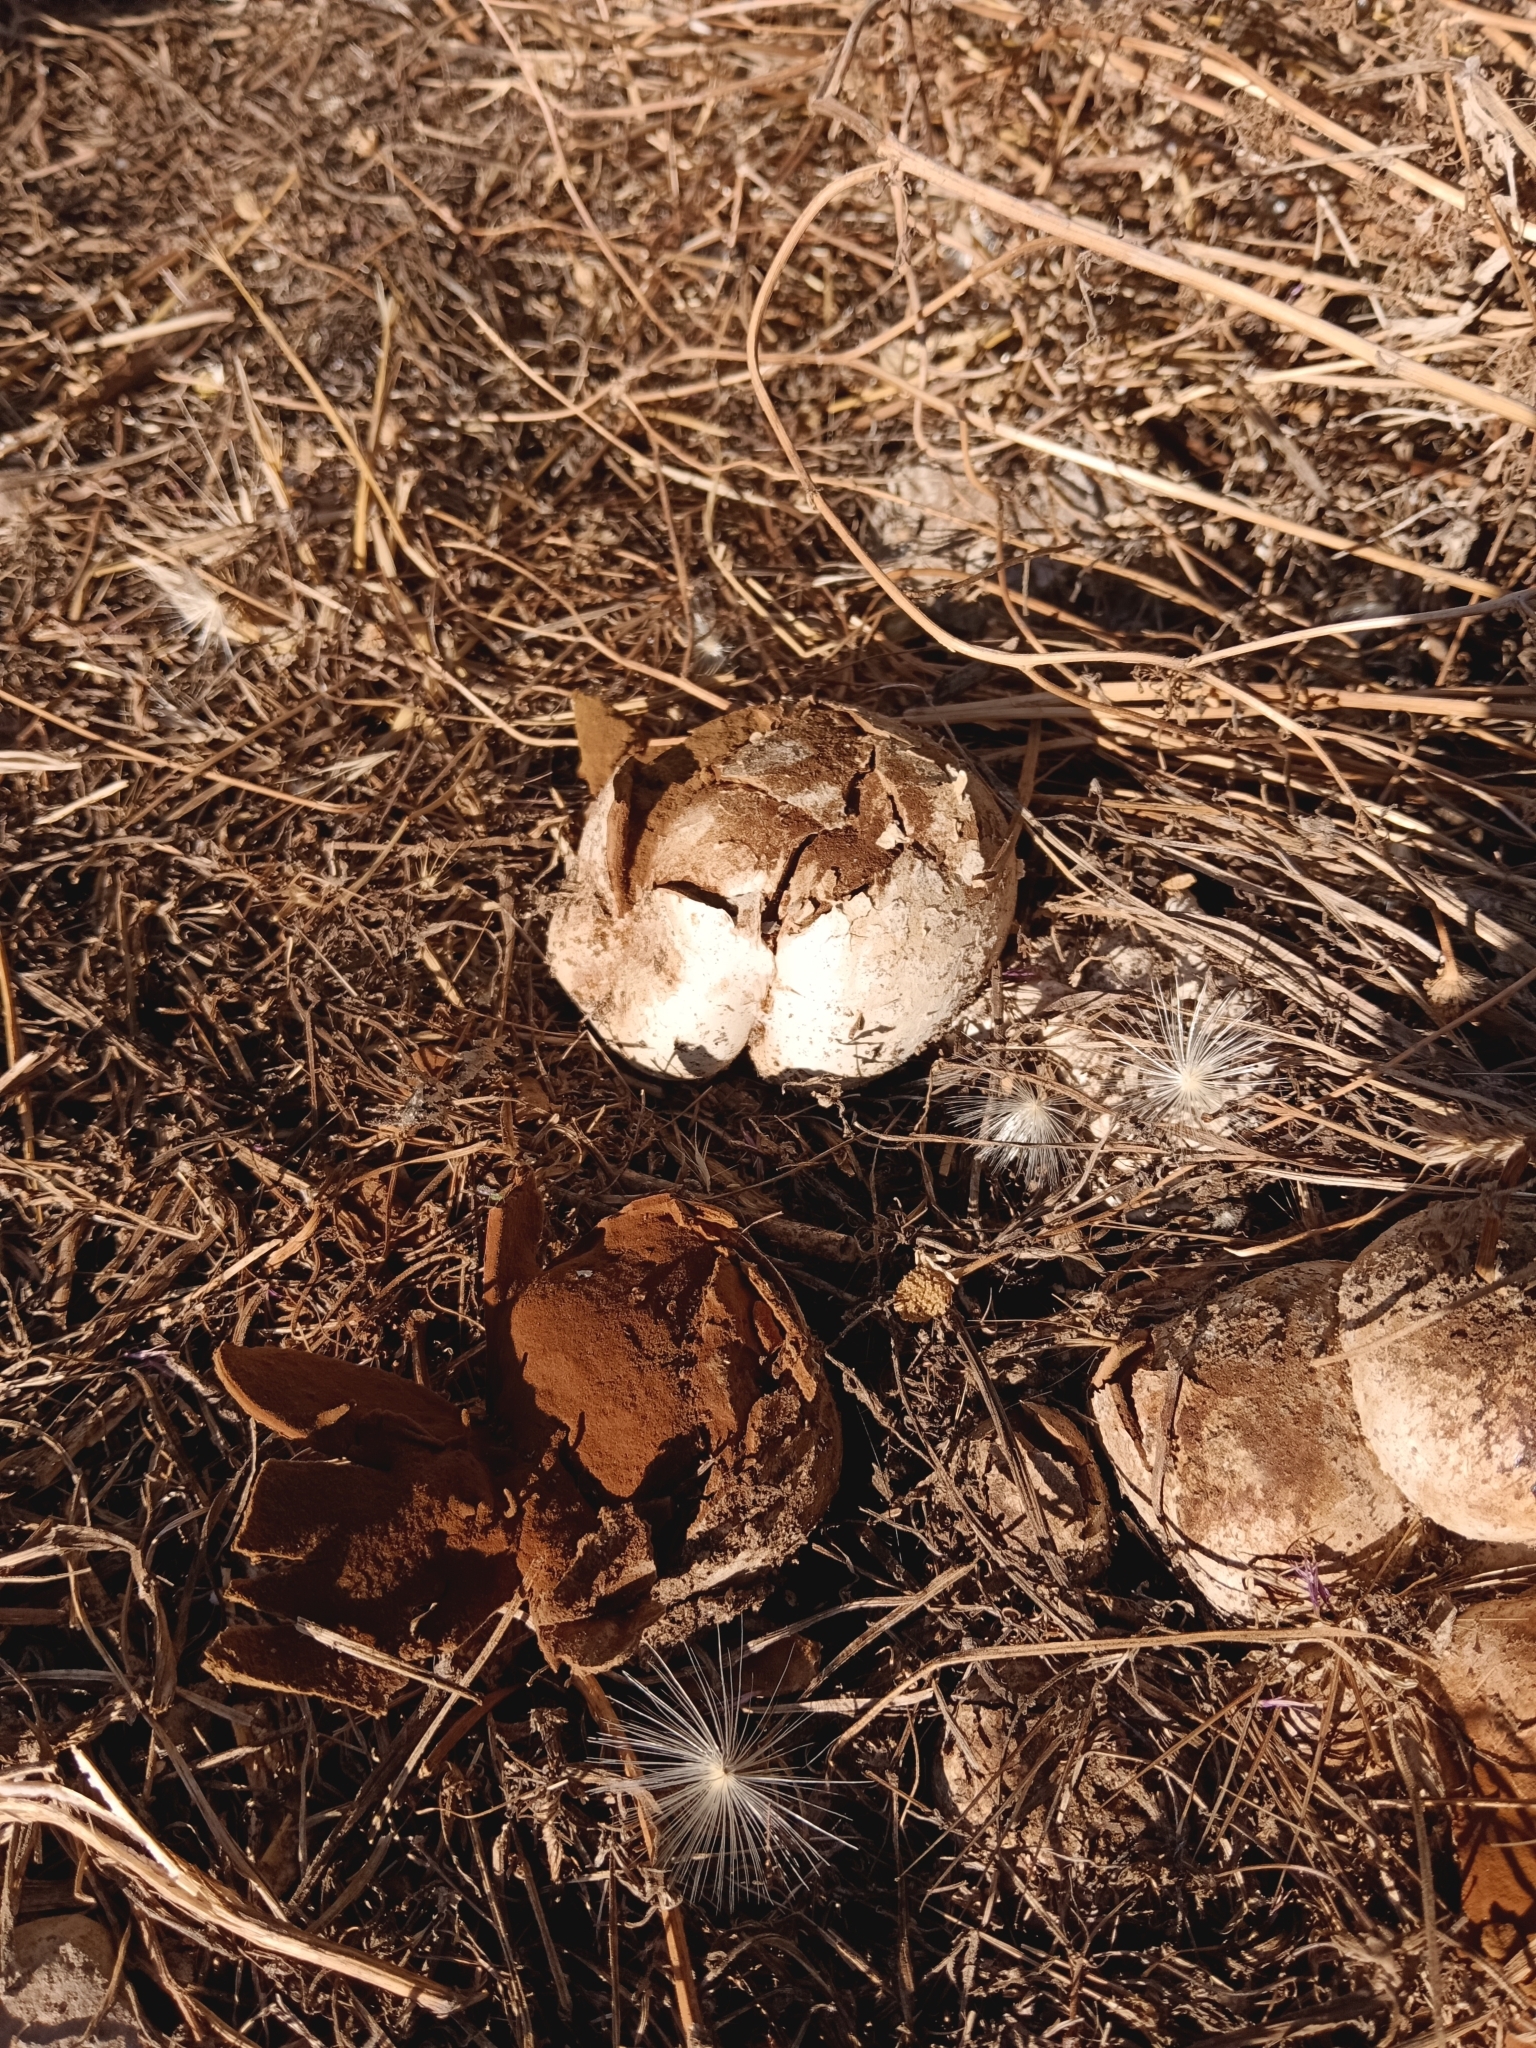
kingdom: Fungi
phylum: Basidiomycota
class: Agaricomycetes
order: Agaricales
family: Agaricaceae
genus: Mycenastrum
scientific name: Mycenastrum corium
